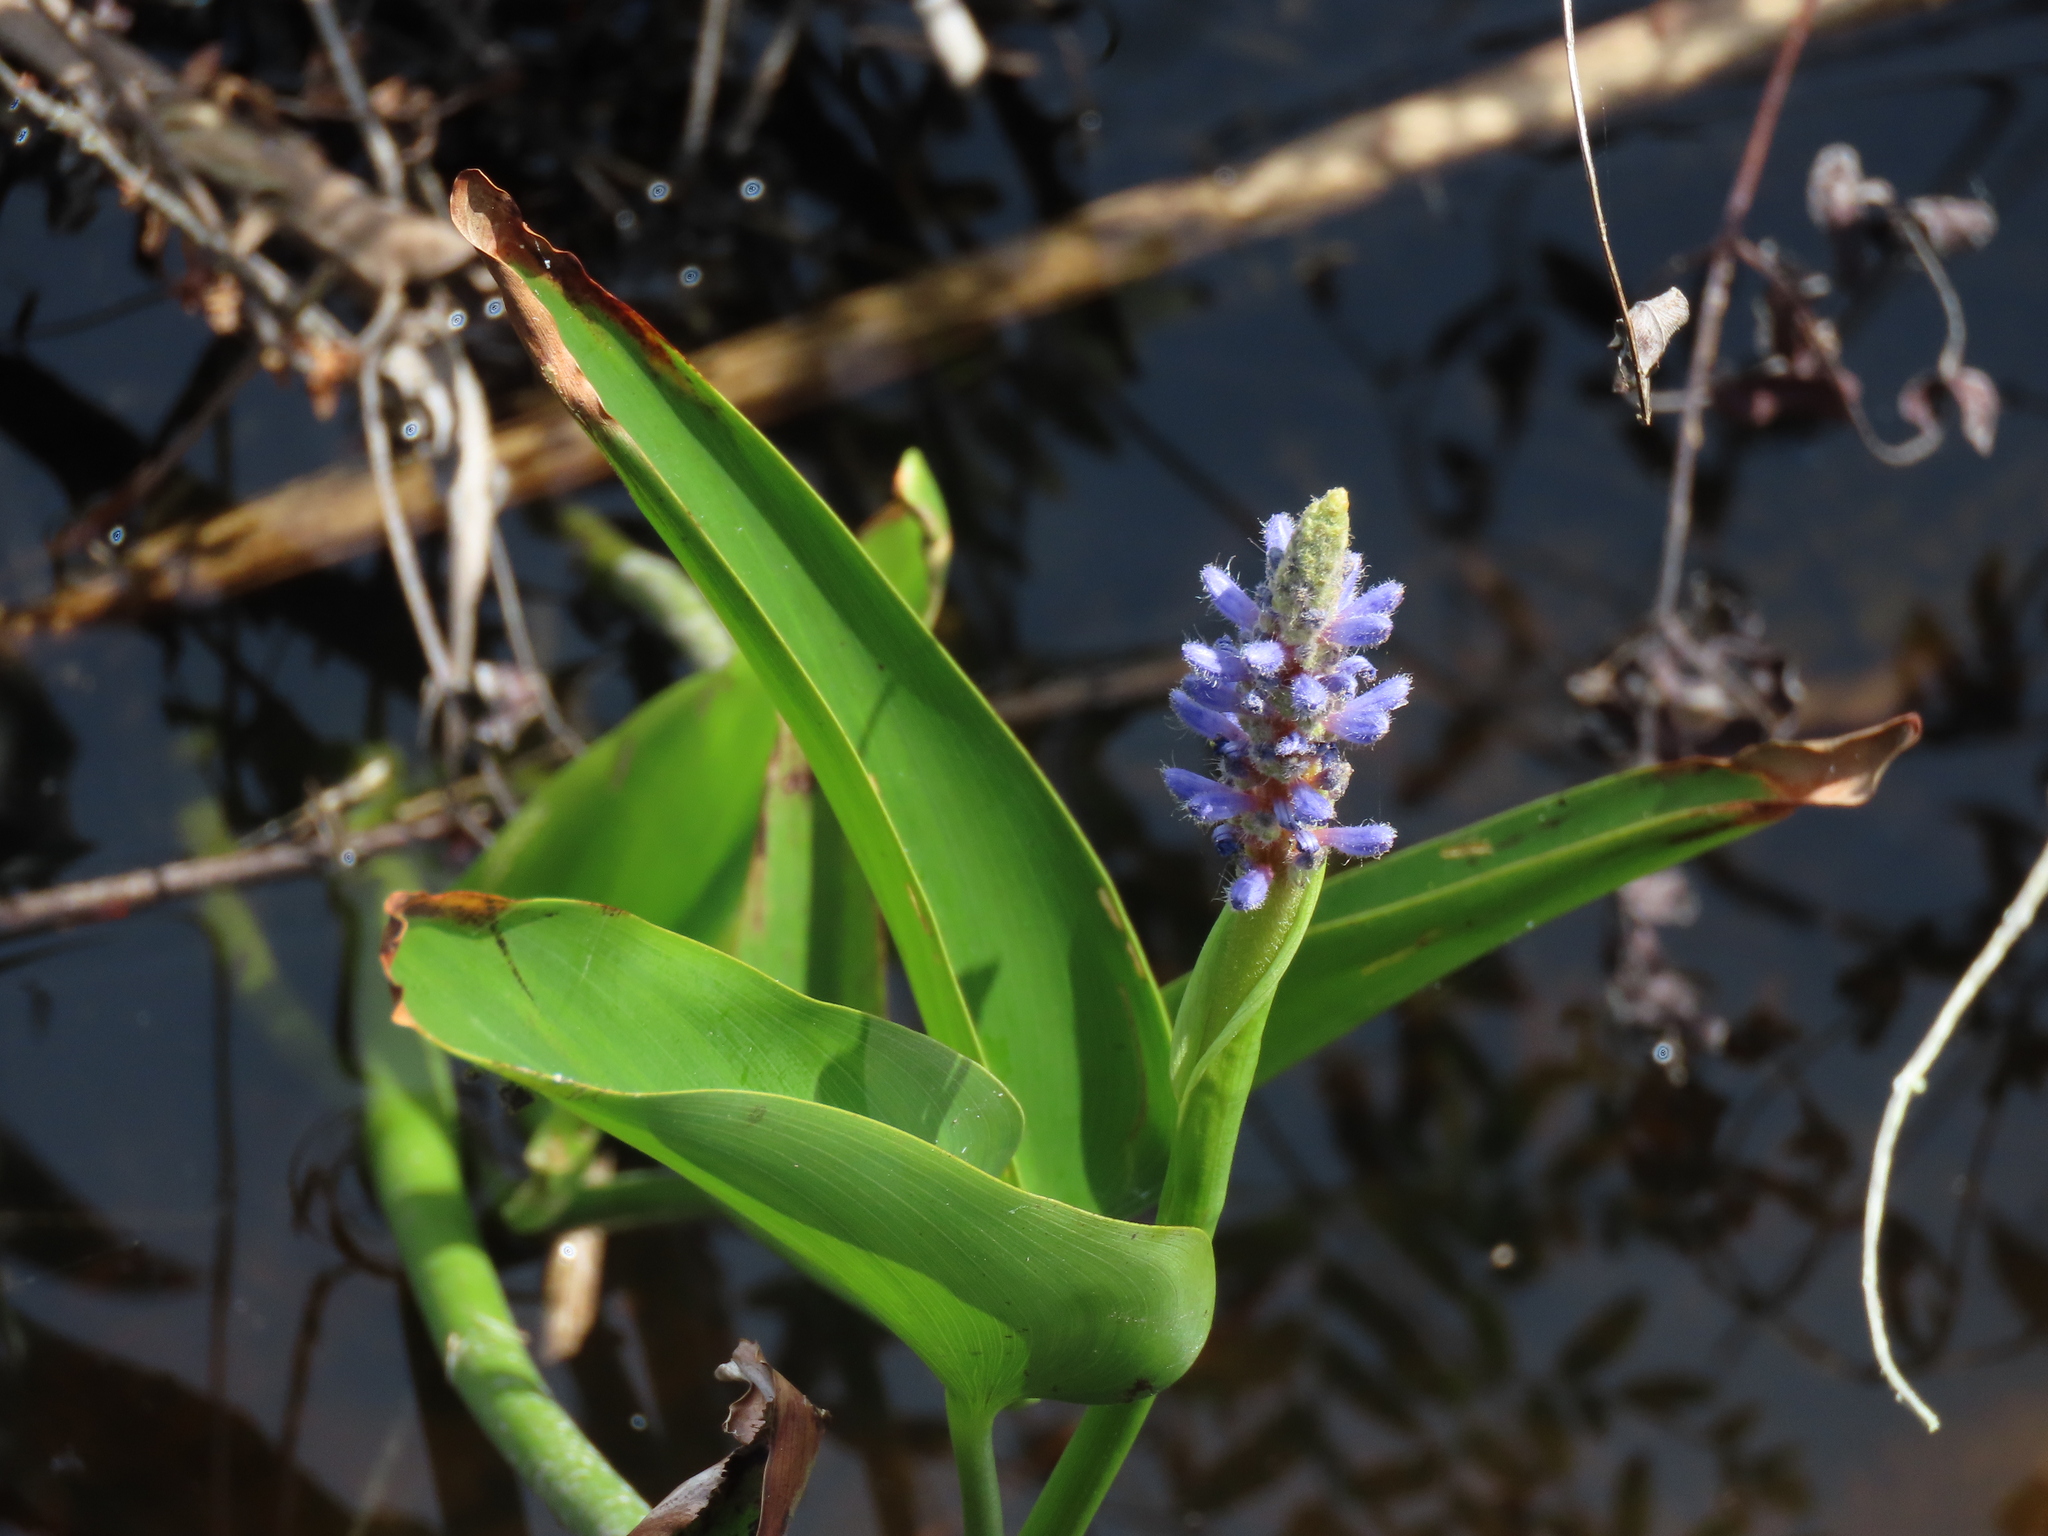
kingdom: Plantae
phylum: Tracheophyta
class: Liliopsida
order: Commelinales
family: Pontederiaceae
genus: Pontederia
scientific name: Pontederia cordata
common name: Pickerelweed
